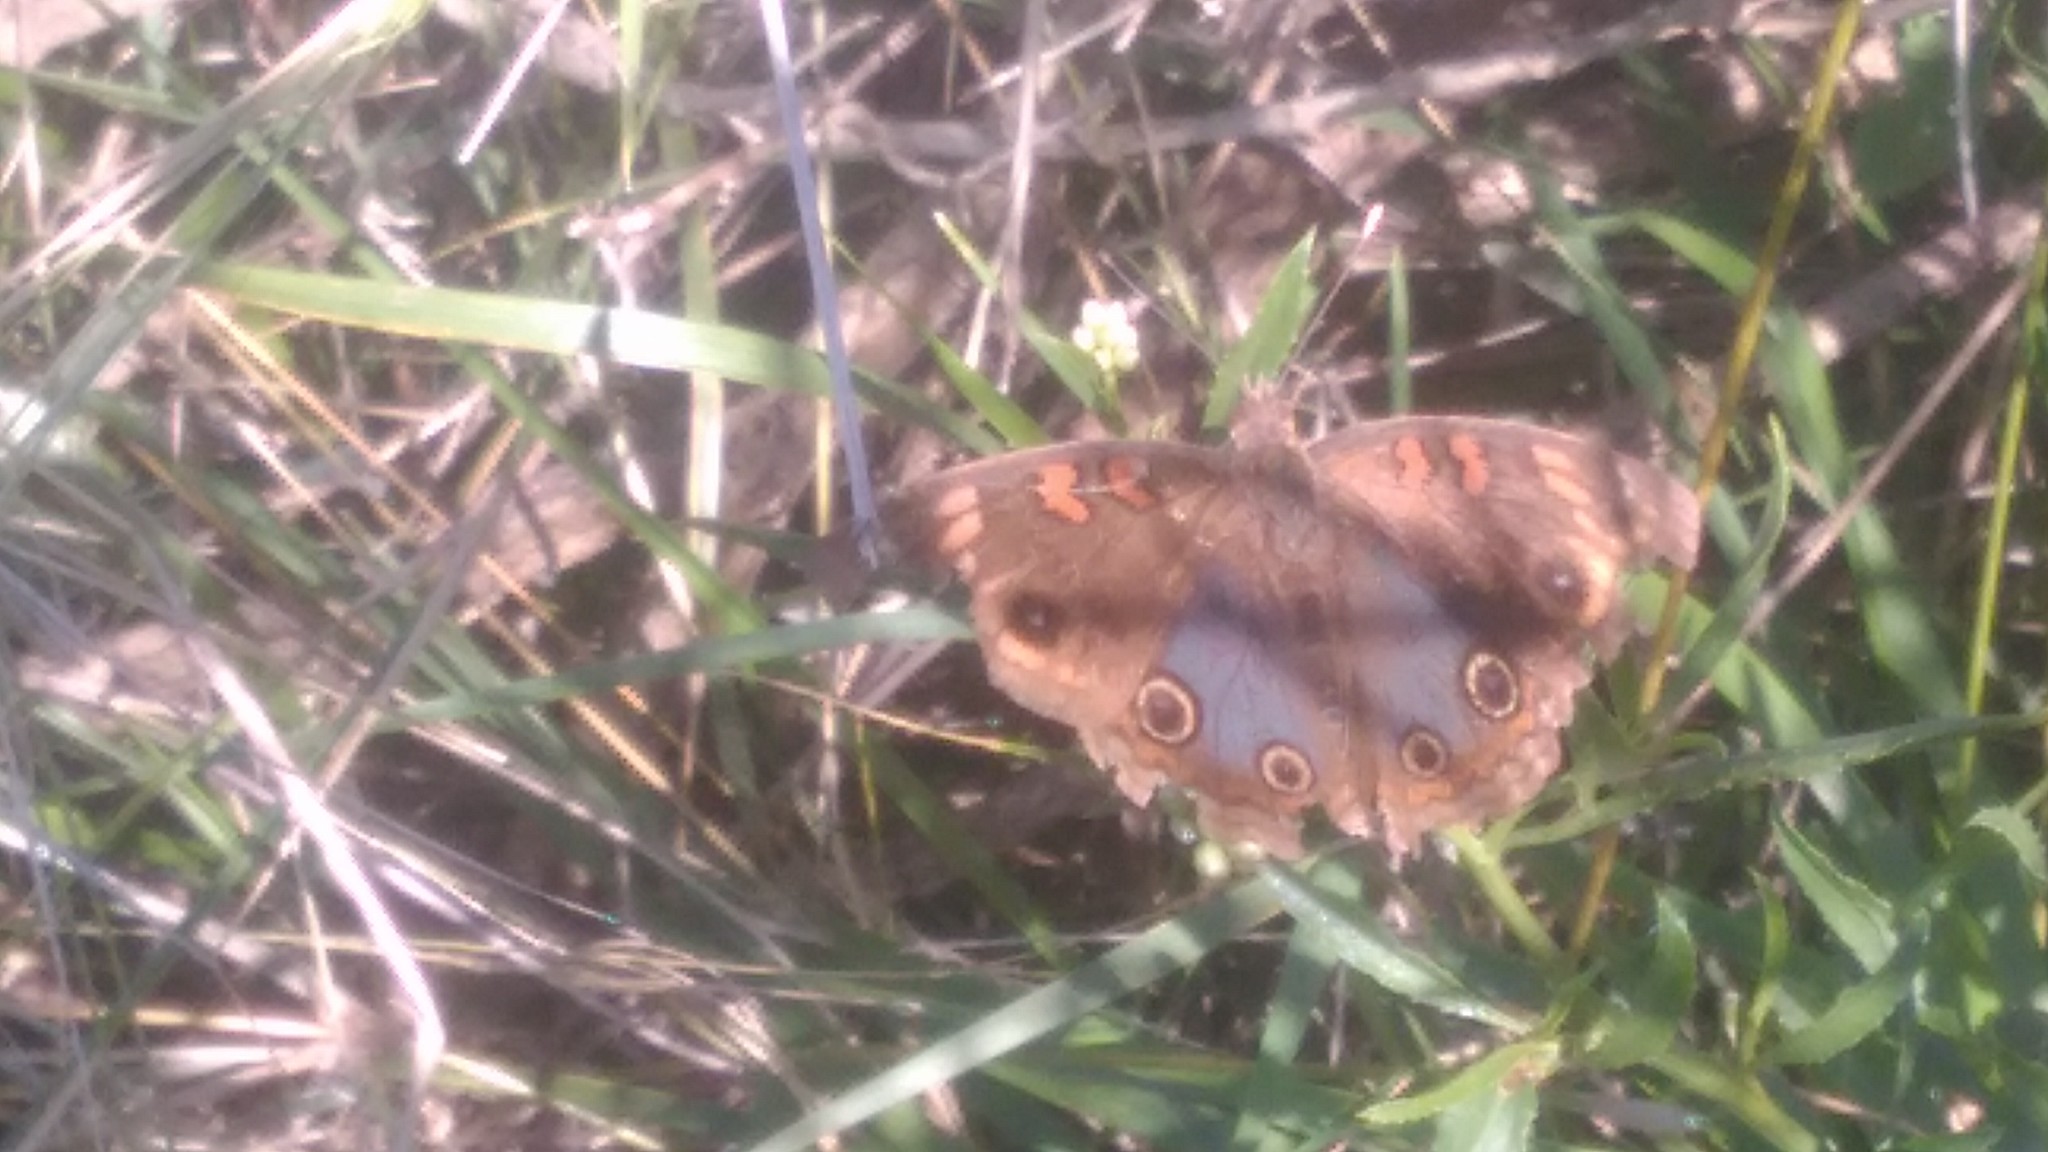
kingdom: Animalia
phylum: Arthropoda
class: Insecta
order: Lepidoptera
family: Nymphalidae
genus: Junonia
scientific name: Junonia lavinia
